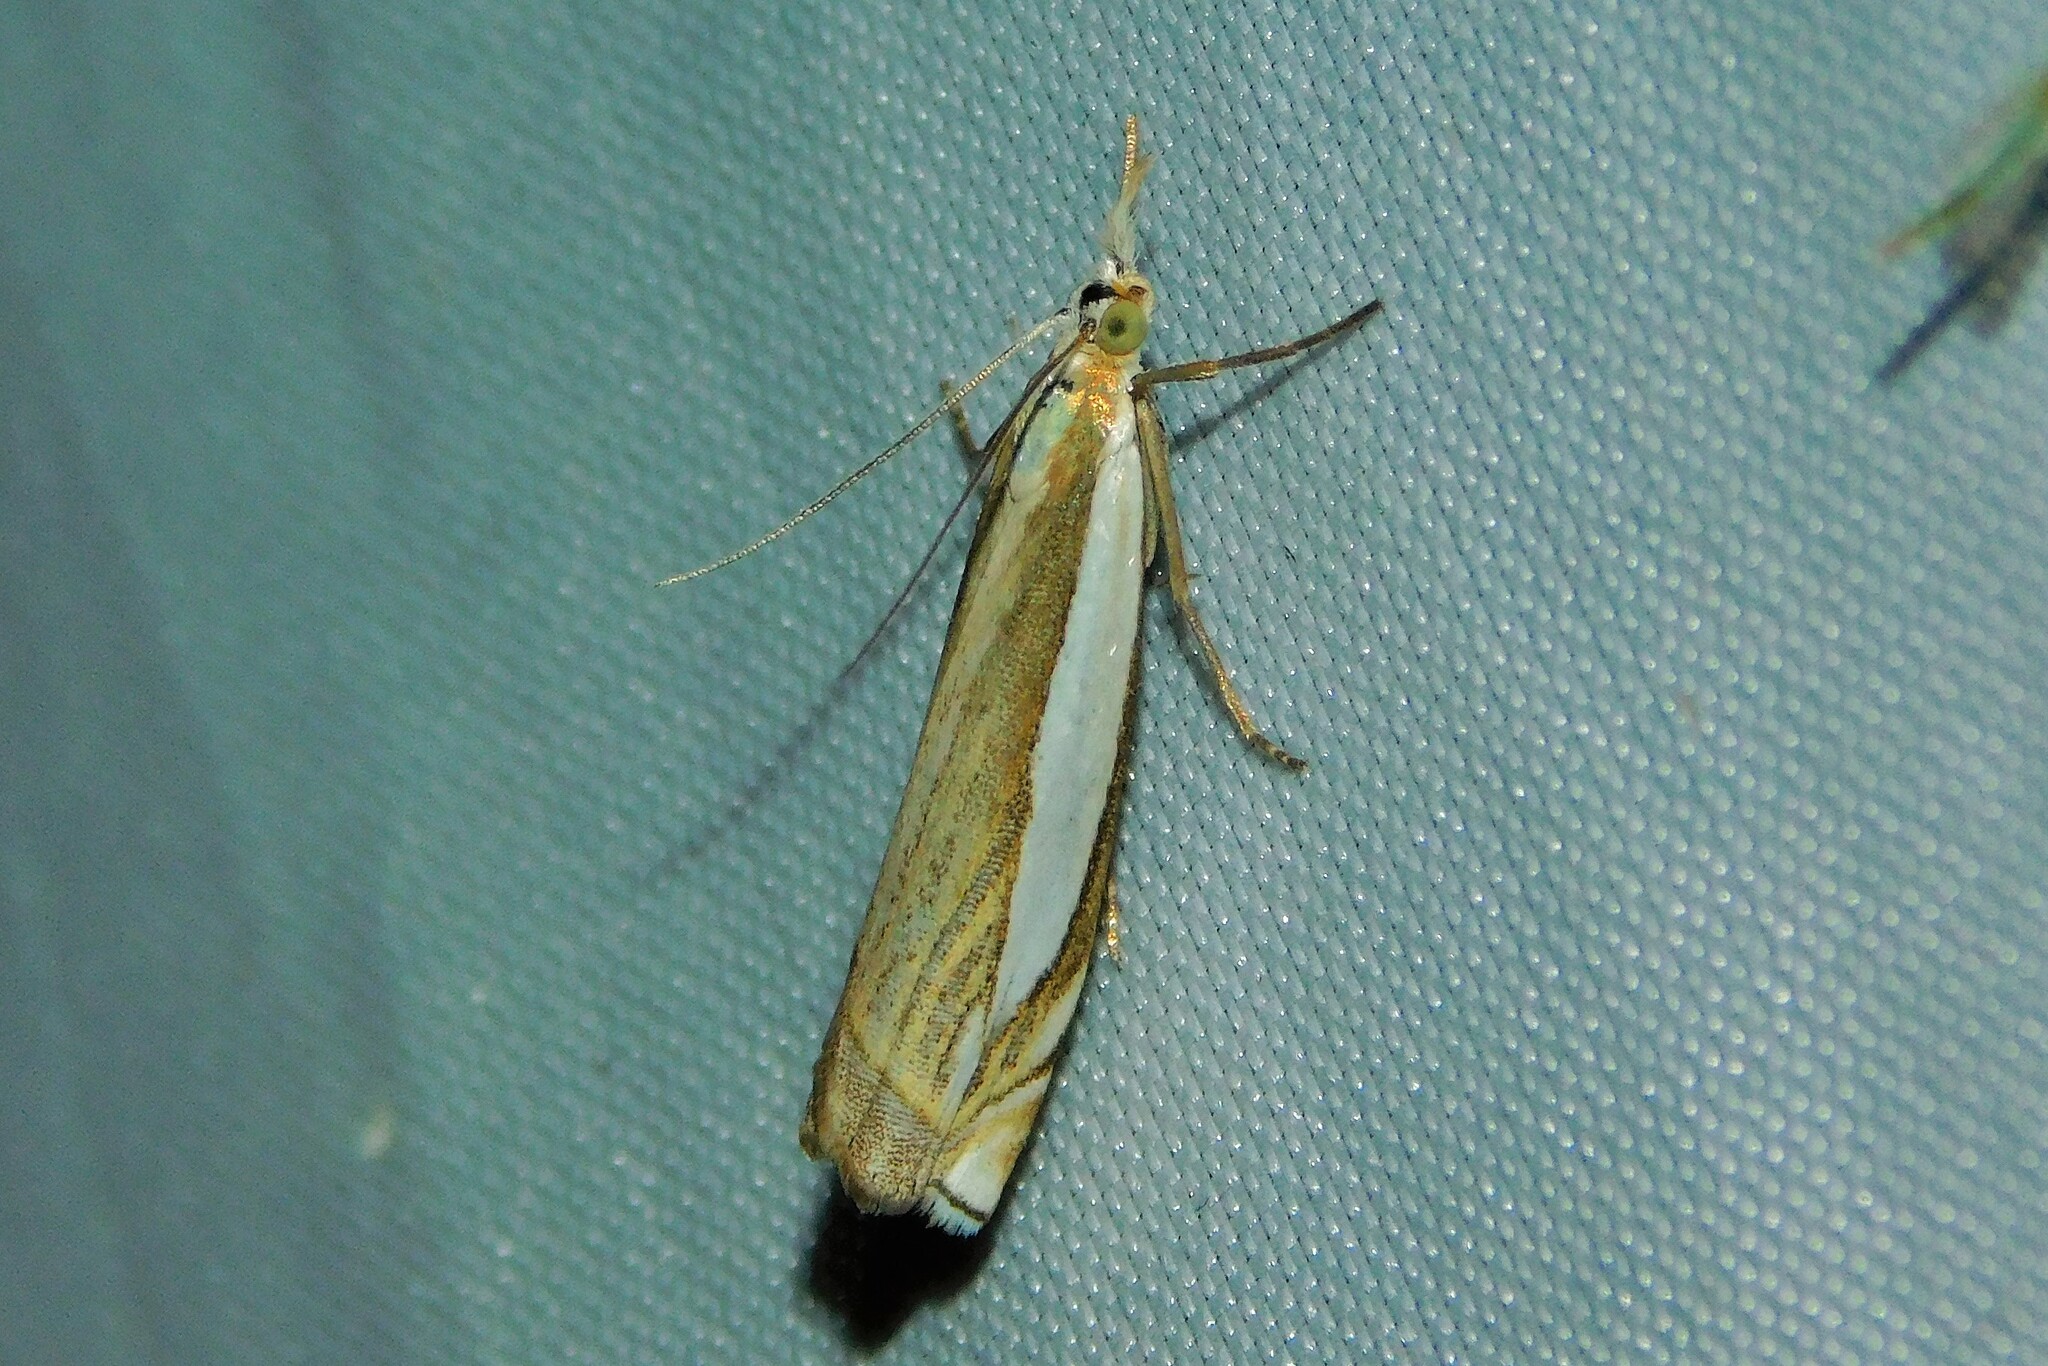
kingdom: Animalia
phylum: Arthropoda
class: Insecta
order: Lepidoptera
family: Crambidae
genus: Crambus
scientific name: Crambus pascuella
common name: Inlaid grass-veneer
